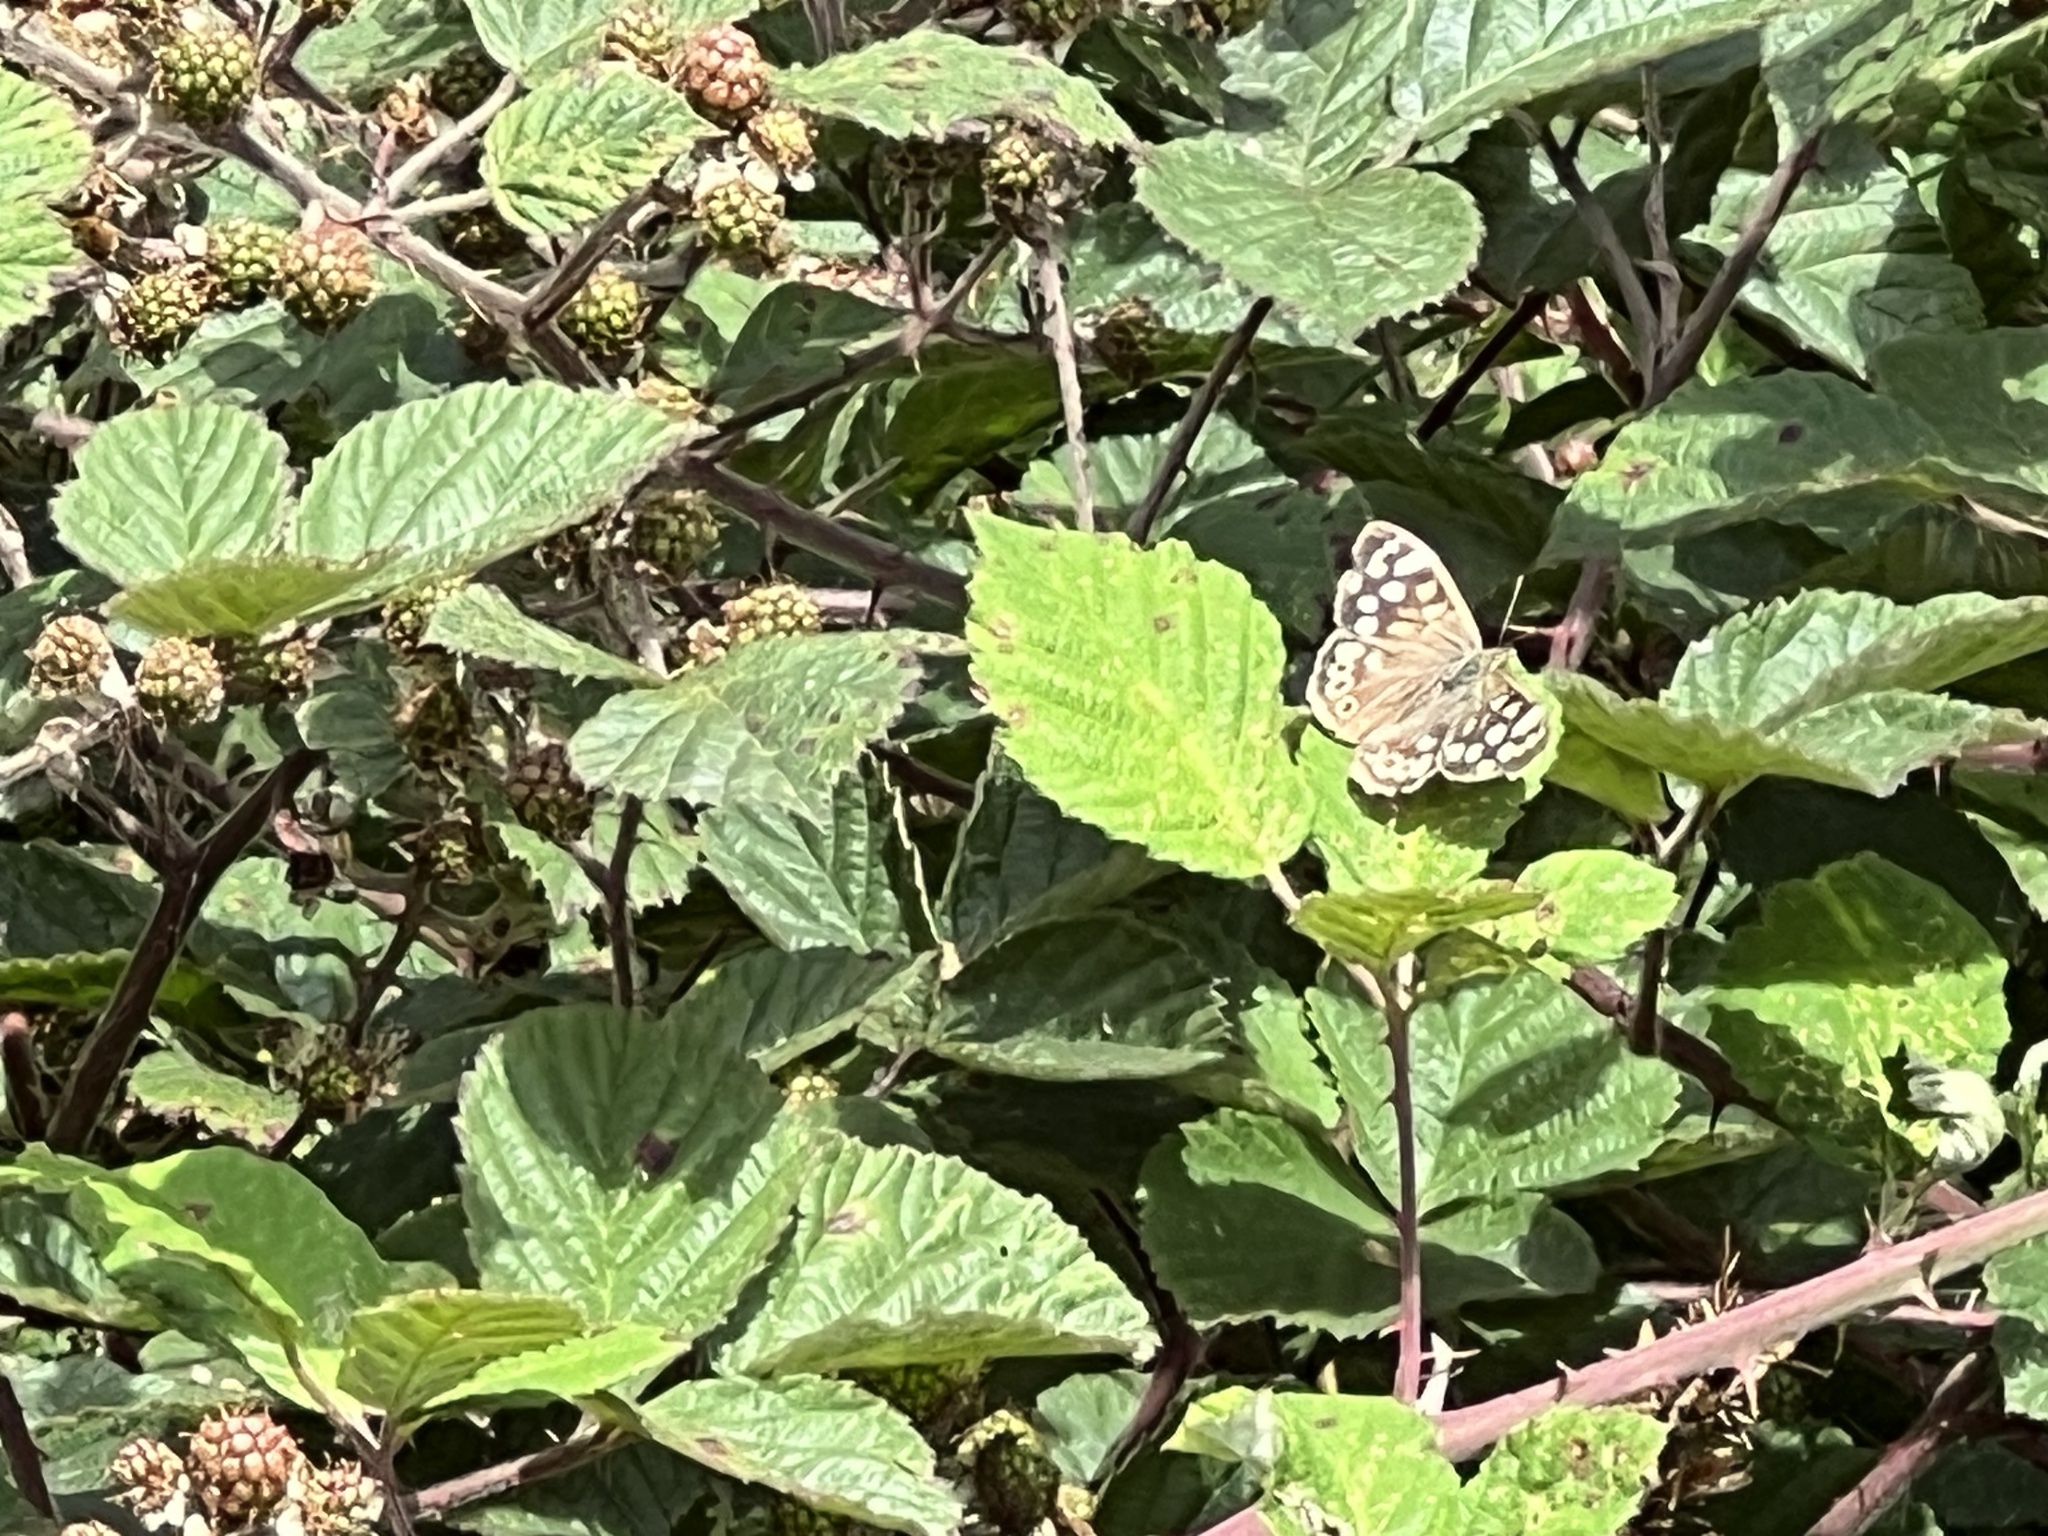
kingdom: Animalia
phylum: Arthropoda
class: Insecta
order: Lepidoptera
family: Nymphalidae
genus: Pararge
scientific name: Pararge aegeria
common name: Speckled wood
